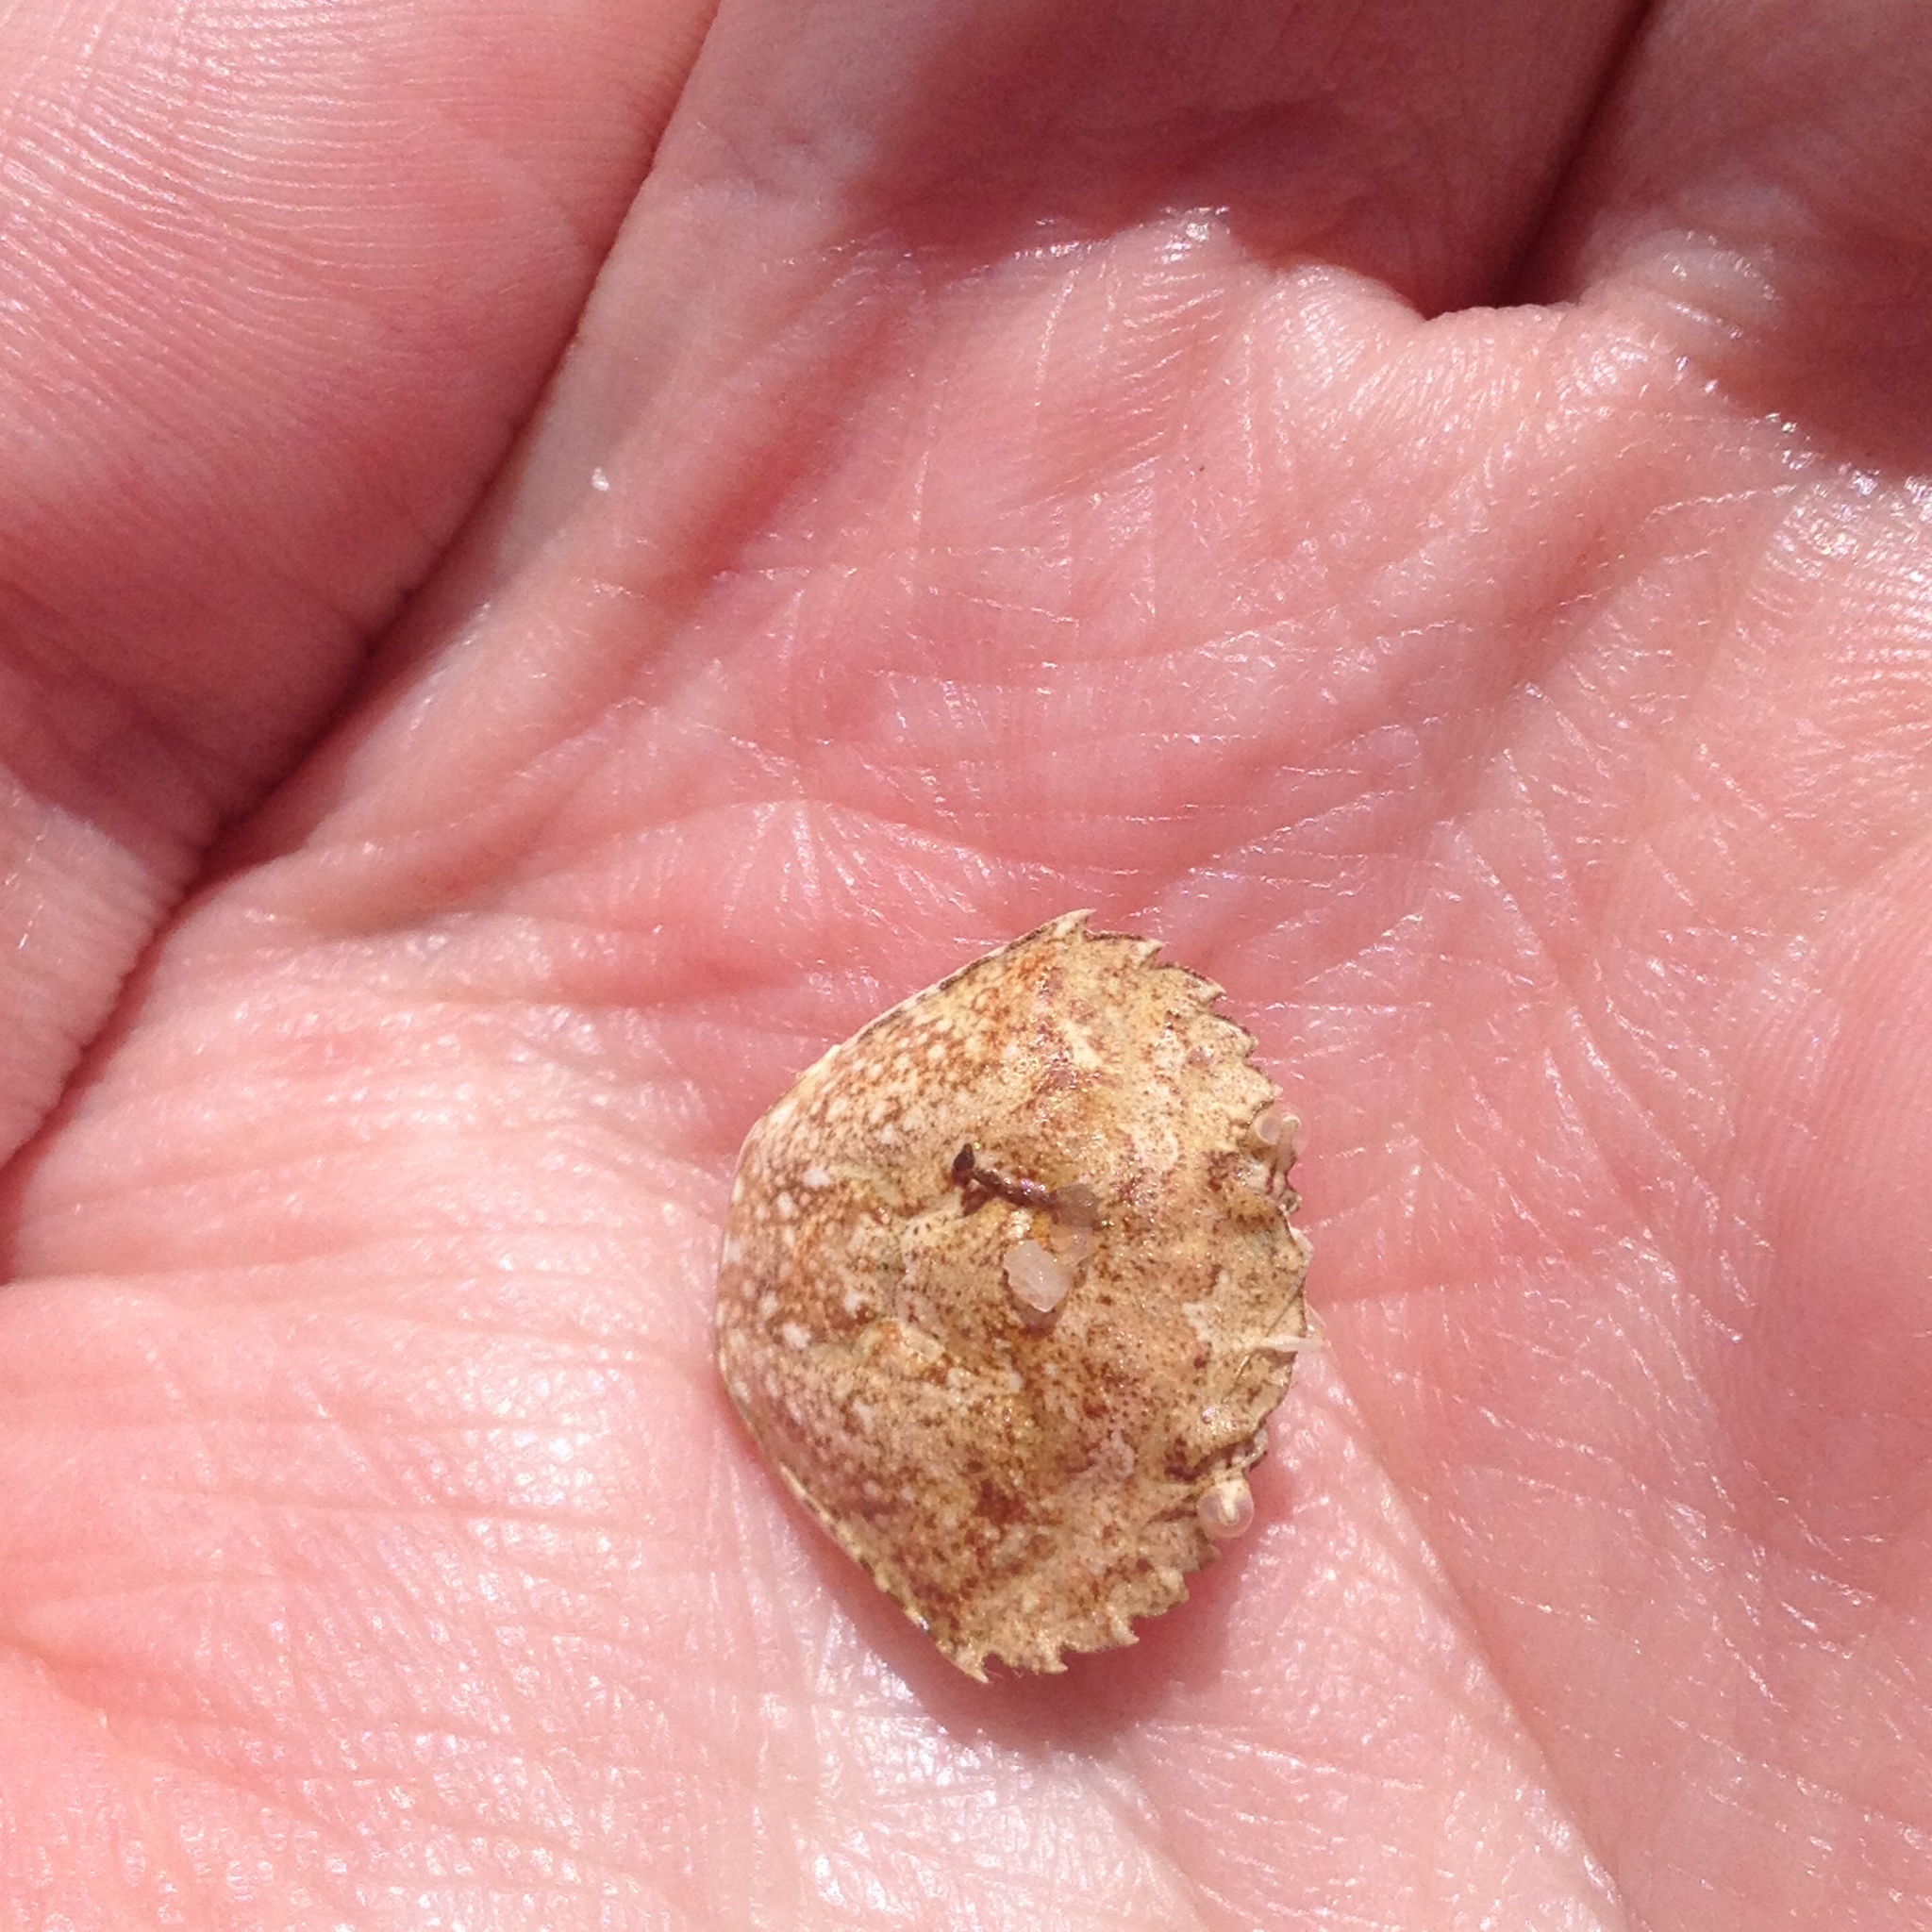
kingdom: Animalia
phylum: Arthropoda
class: Malacostraca
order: Decapoda
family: Carcinidae
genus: Carcinus
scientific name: Carcinus maenas
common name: European green crab
